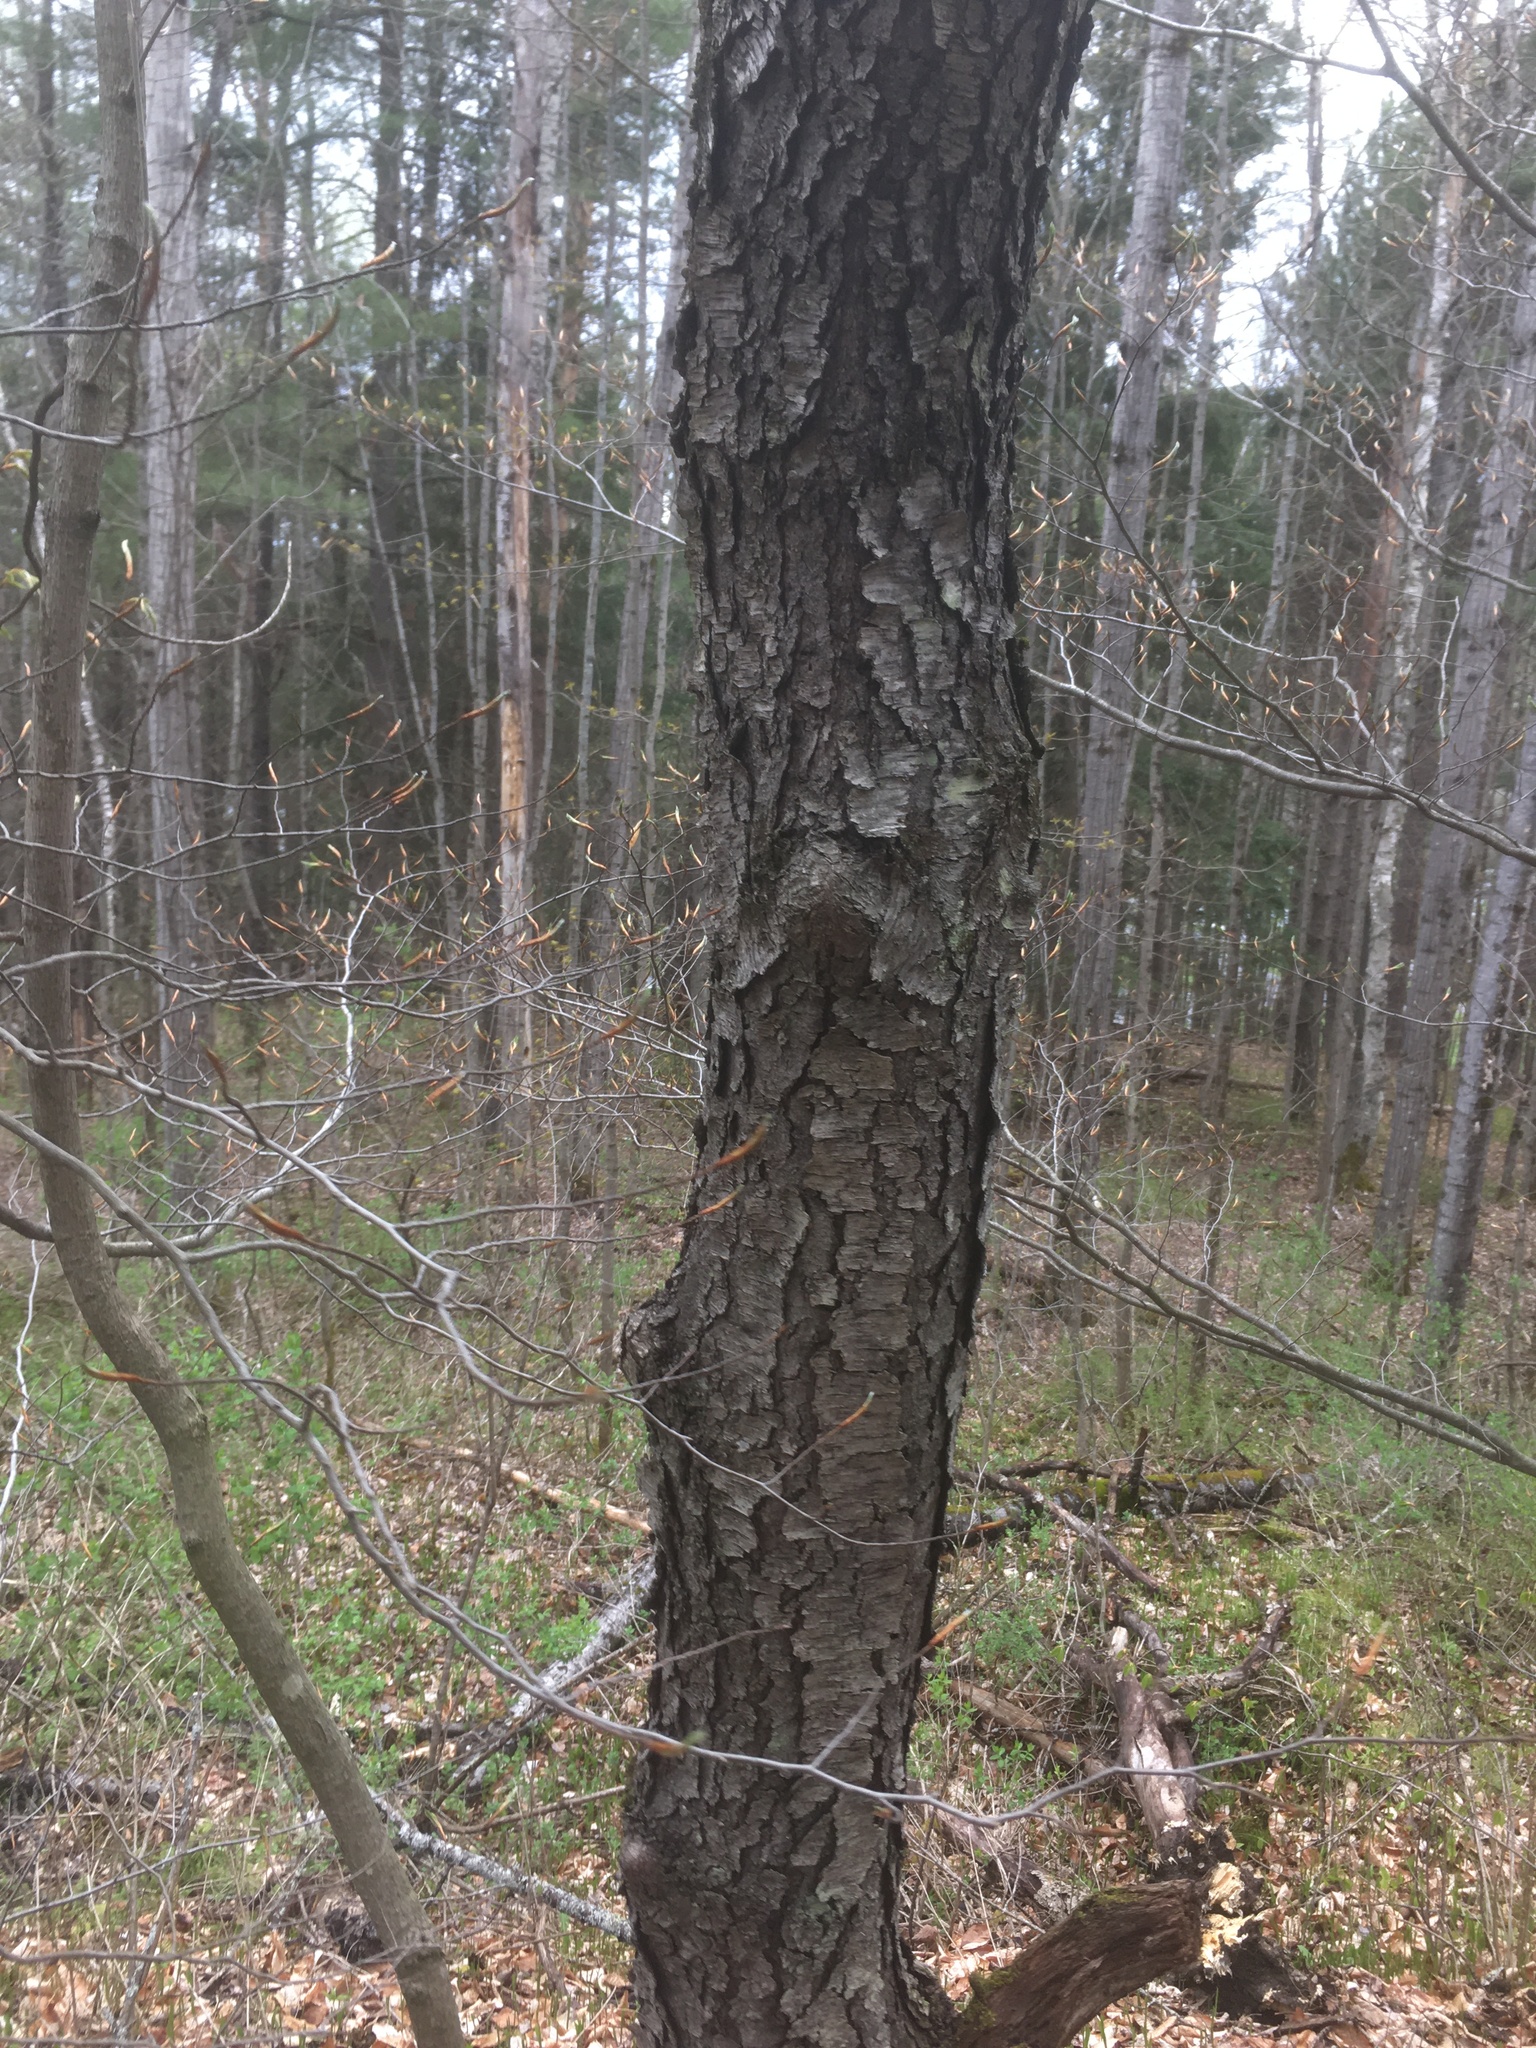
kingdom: Plantae
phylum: Tracheophyta
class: Magnoliopsida
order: Rosales
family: Rosaceae
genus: Prunus
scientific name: Prunus serotina
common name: Black cherry
